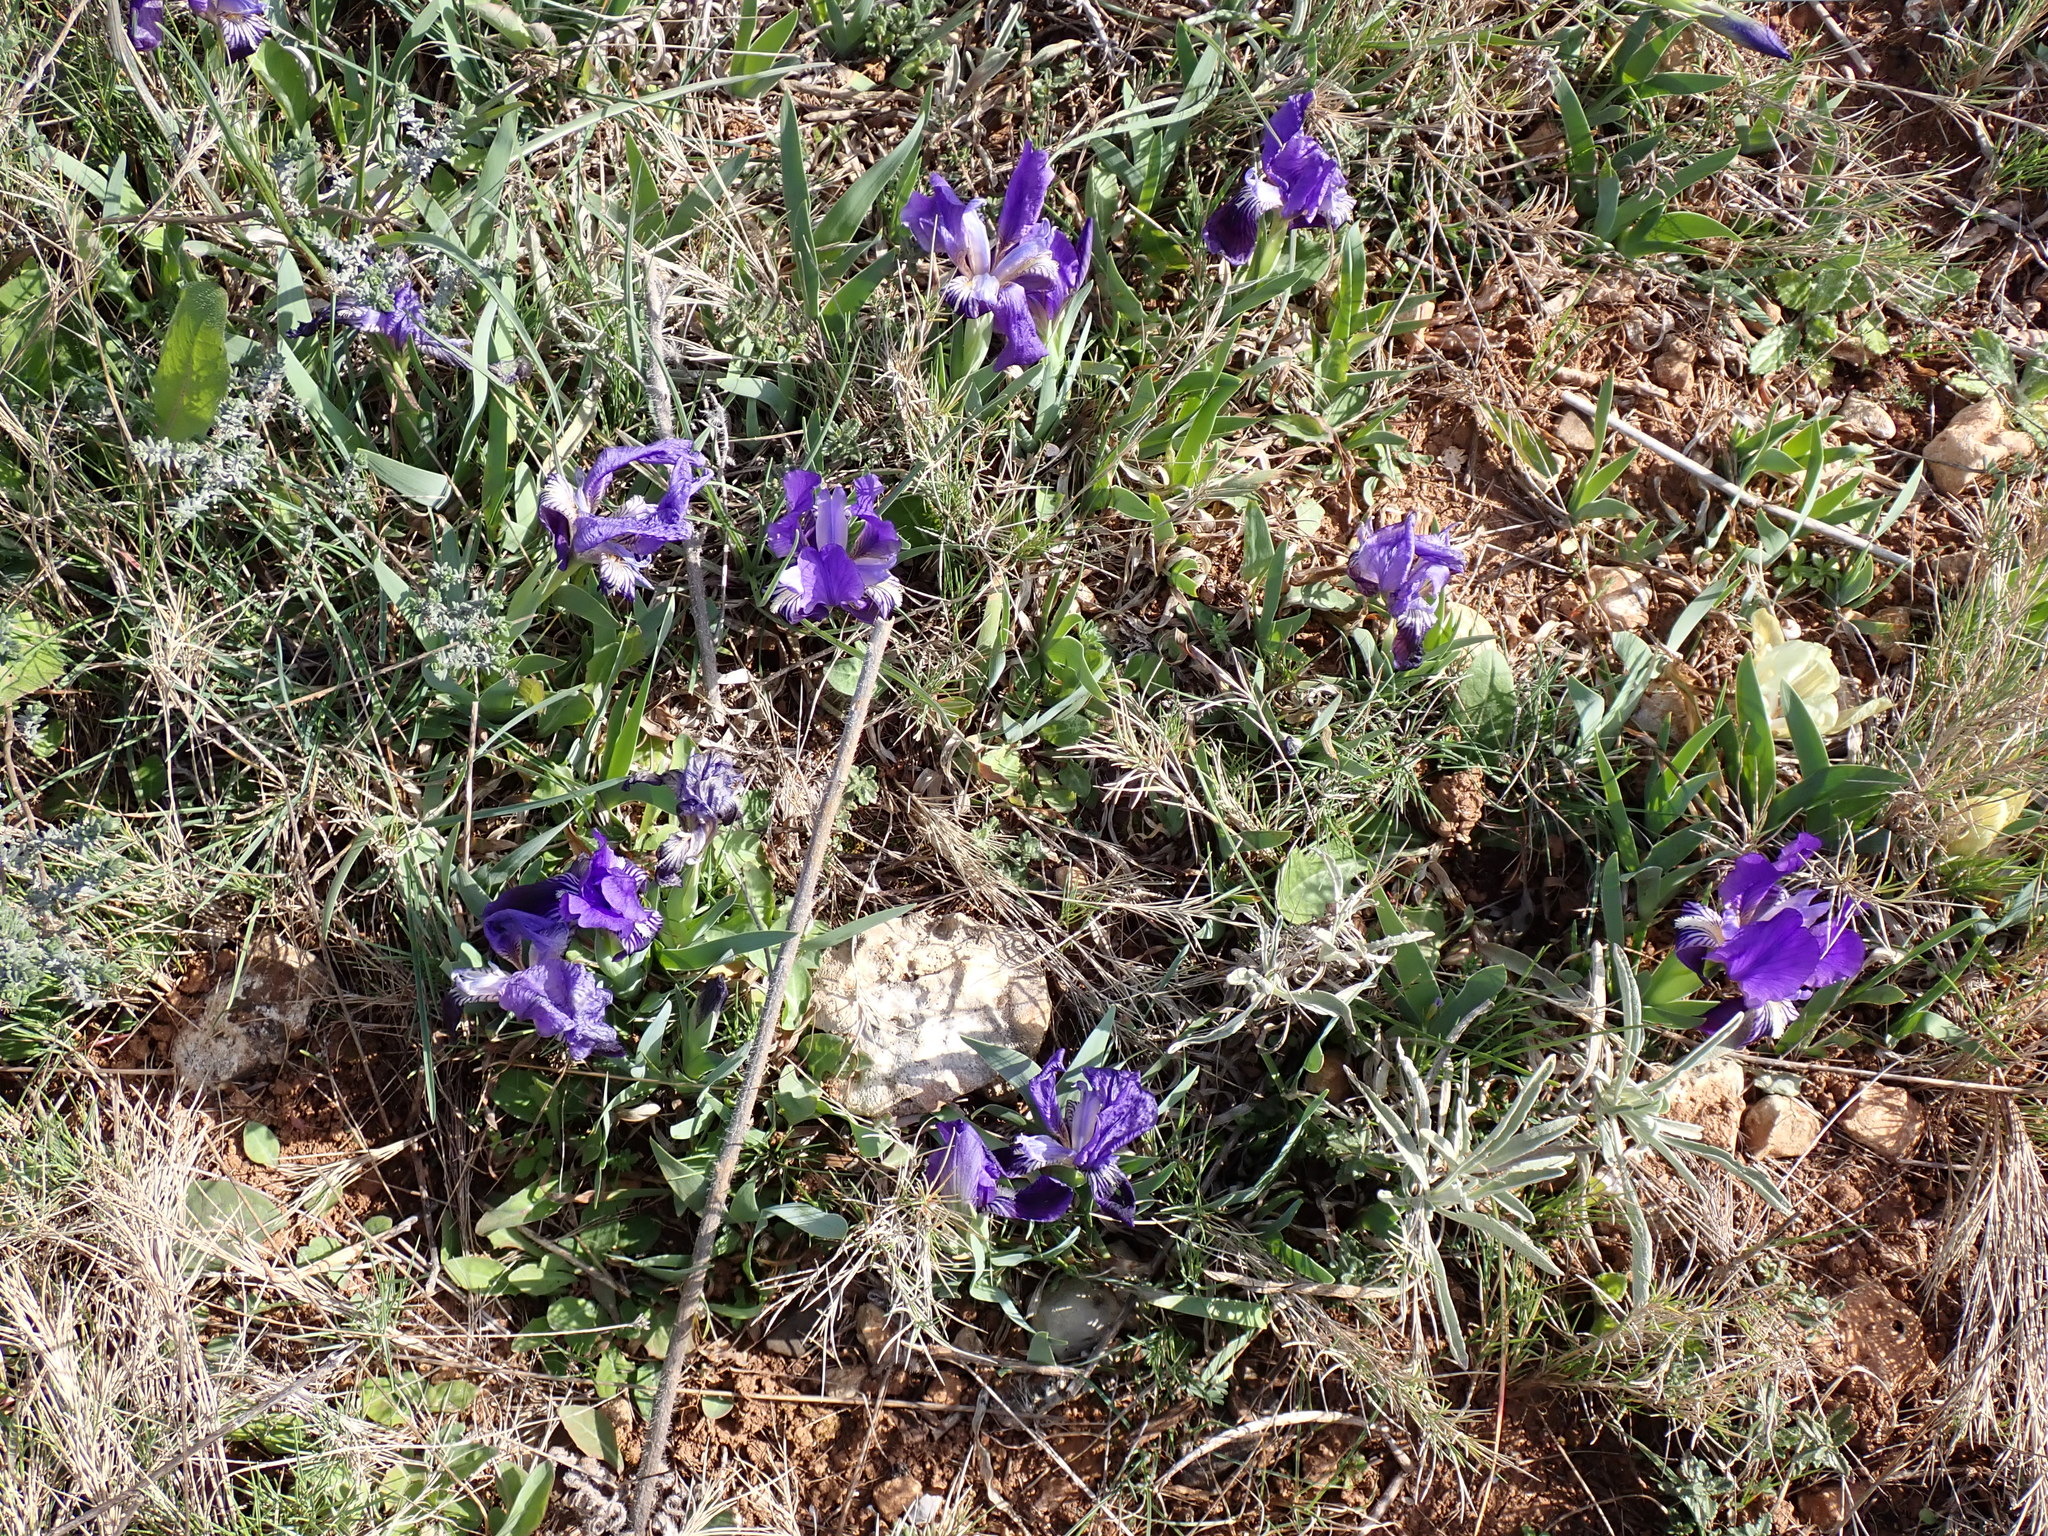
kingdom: Plantae
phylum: Tracheophyta
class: Liliopsida
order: Asparagales
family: Iridaceae
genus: Iris
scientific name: Iris lutescens
